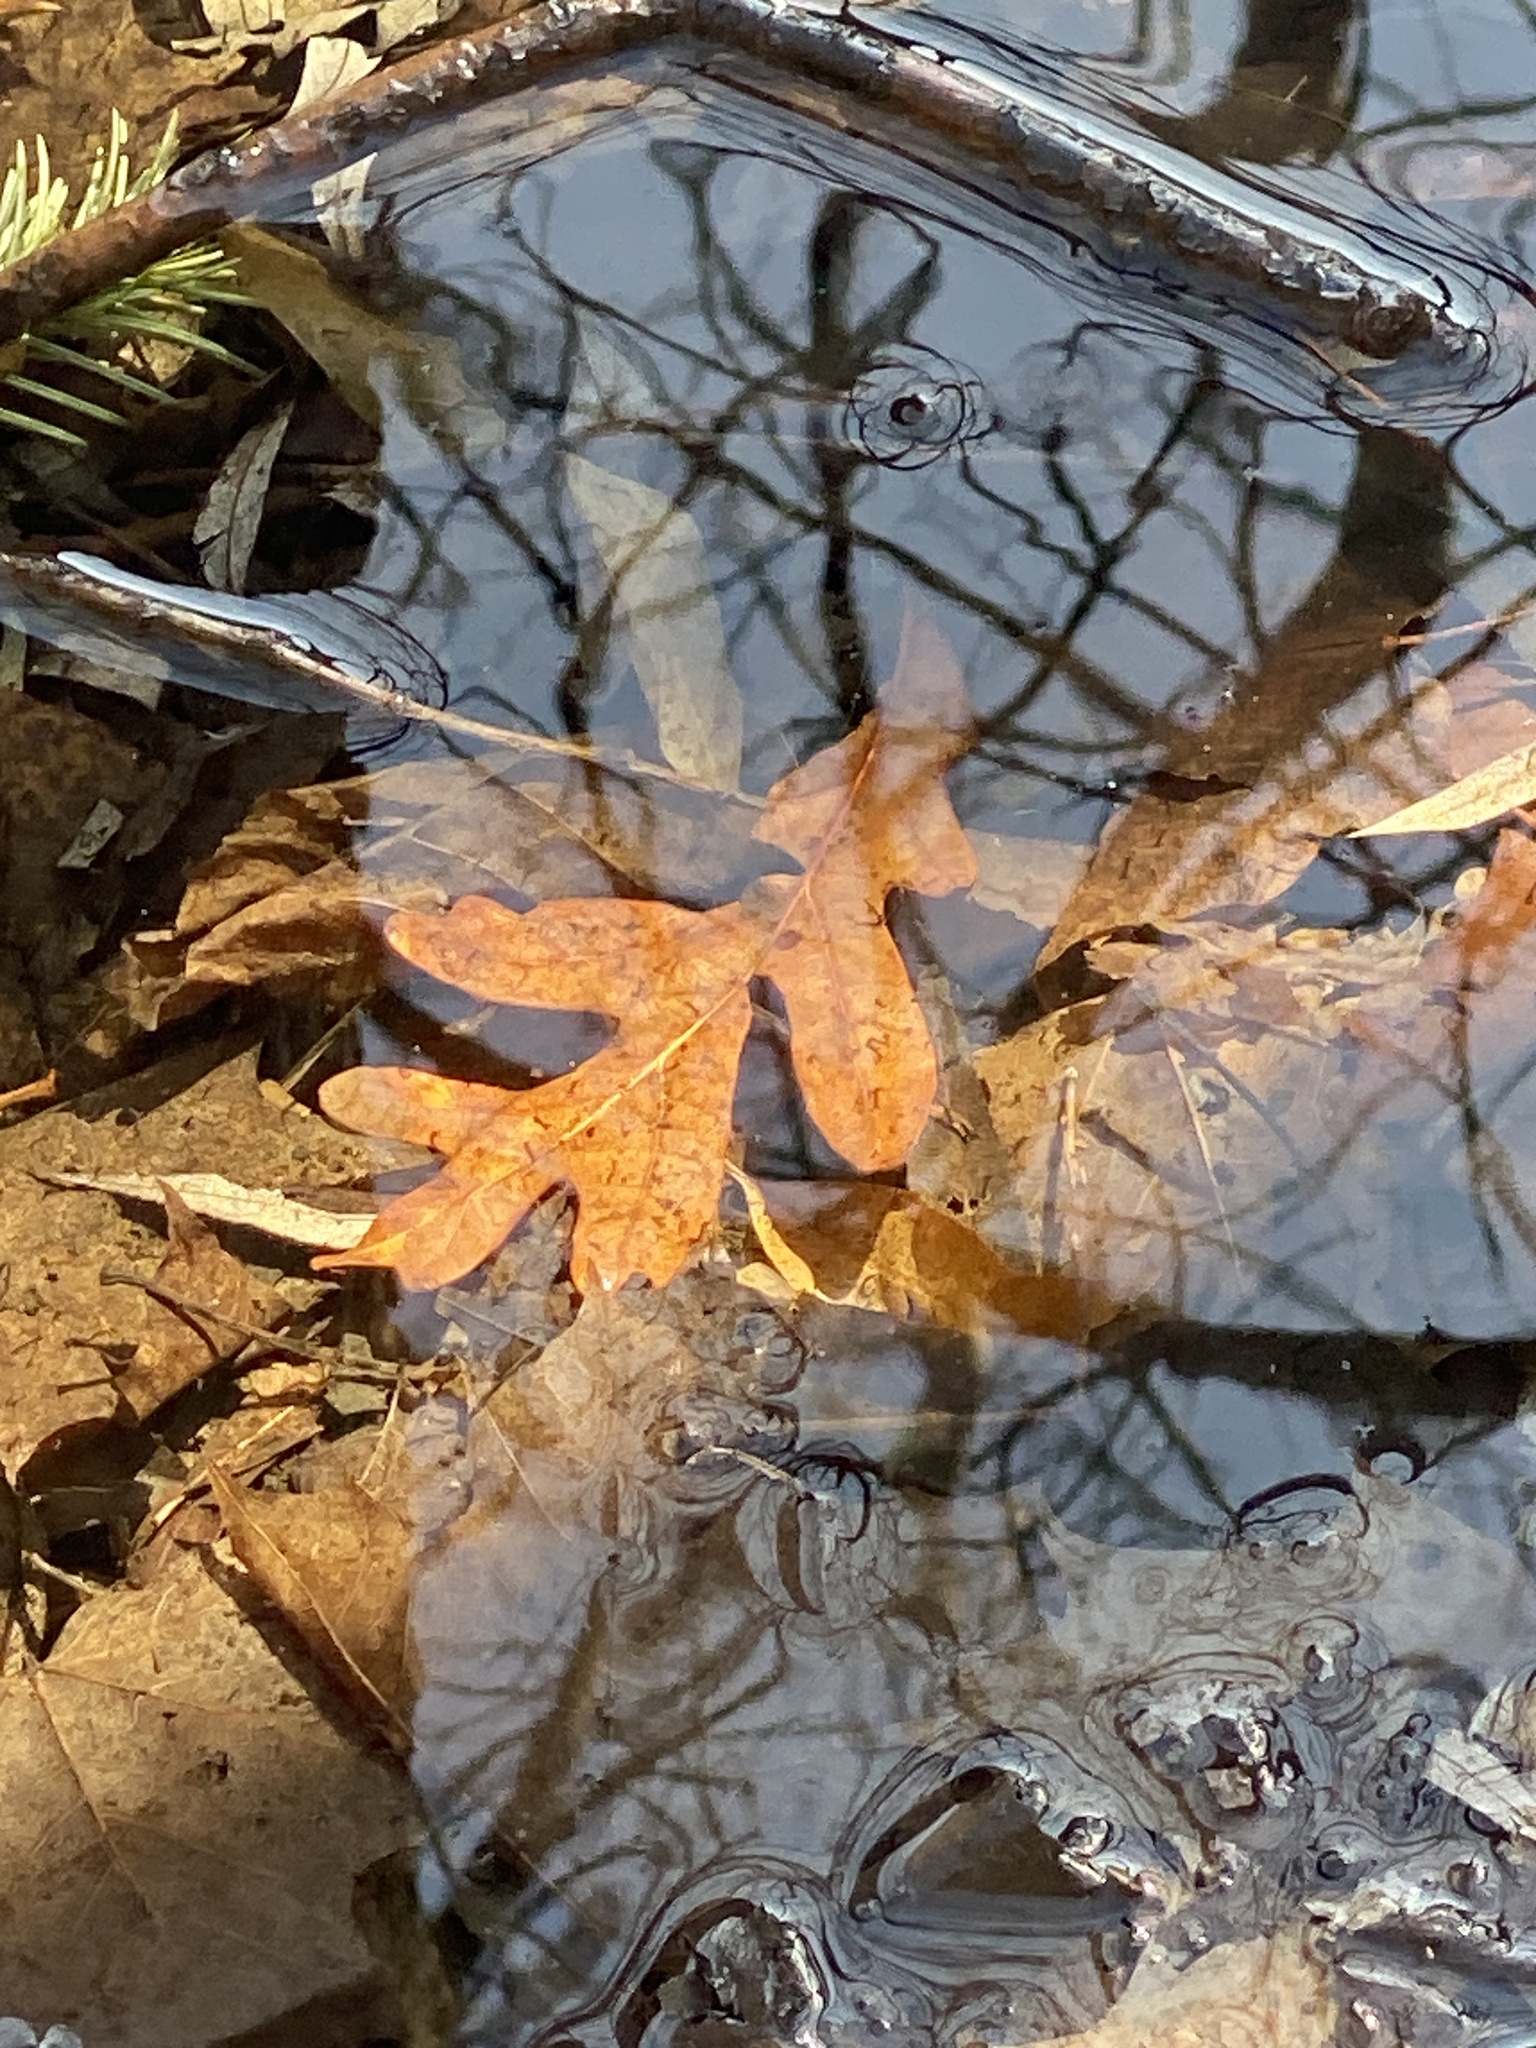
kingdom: Plantae
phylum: Tracheophyta
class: Magnoliopsida
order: Fagales
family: Fagaceae
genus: Quercus
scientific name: Quercus alba
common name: White oak
